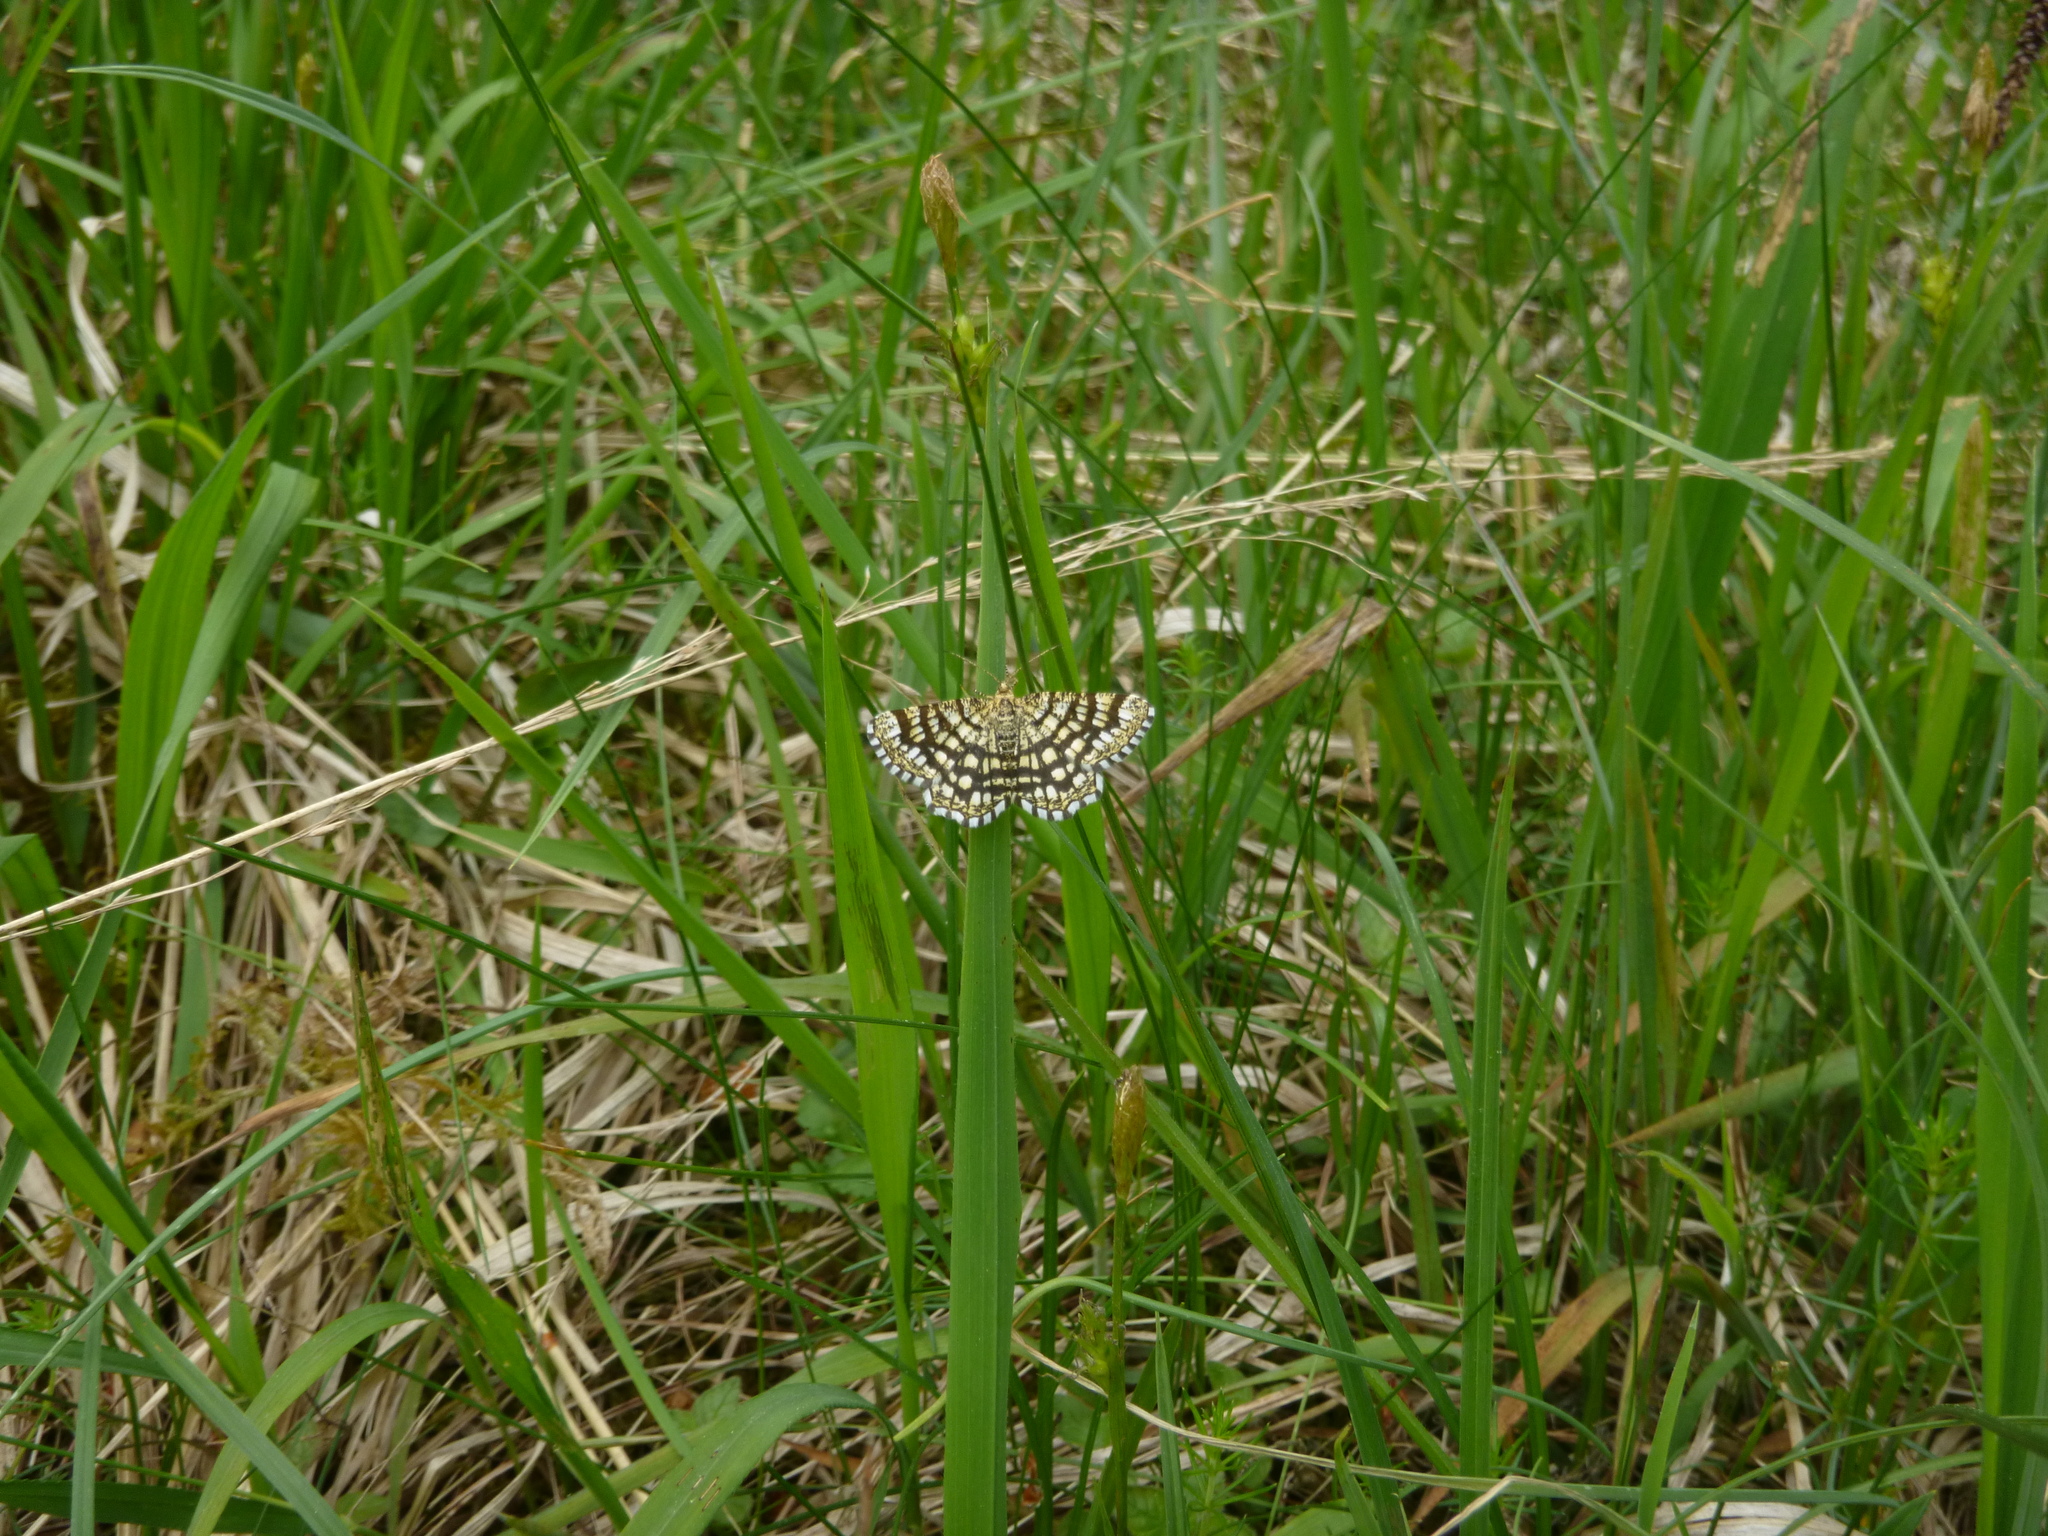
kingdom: Animalia
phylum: Arthropoda
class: Insecta
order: Lepidoptera
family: Geometridae
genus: Chiasmia
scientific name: Chiasmia clathrata
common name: Latticed heath
